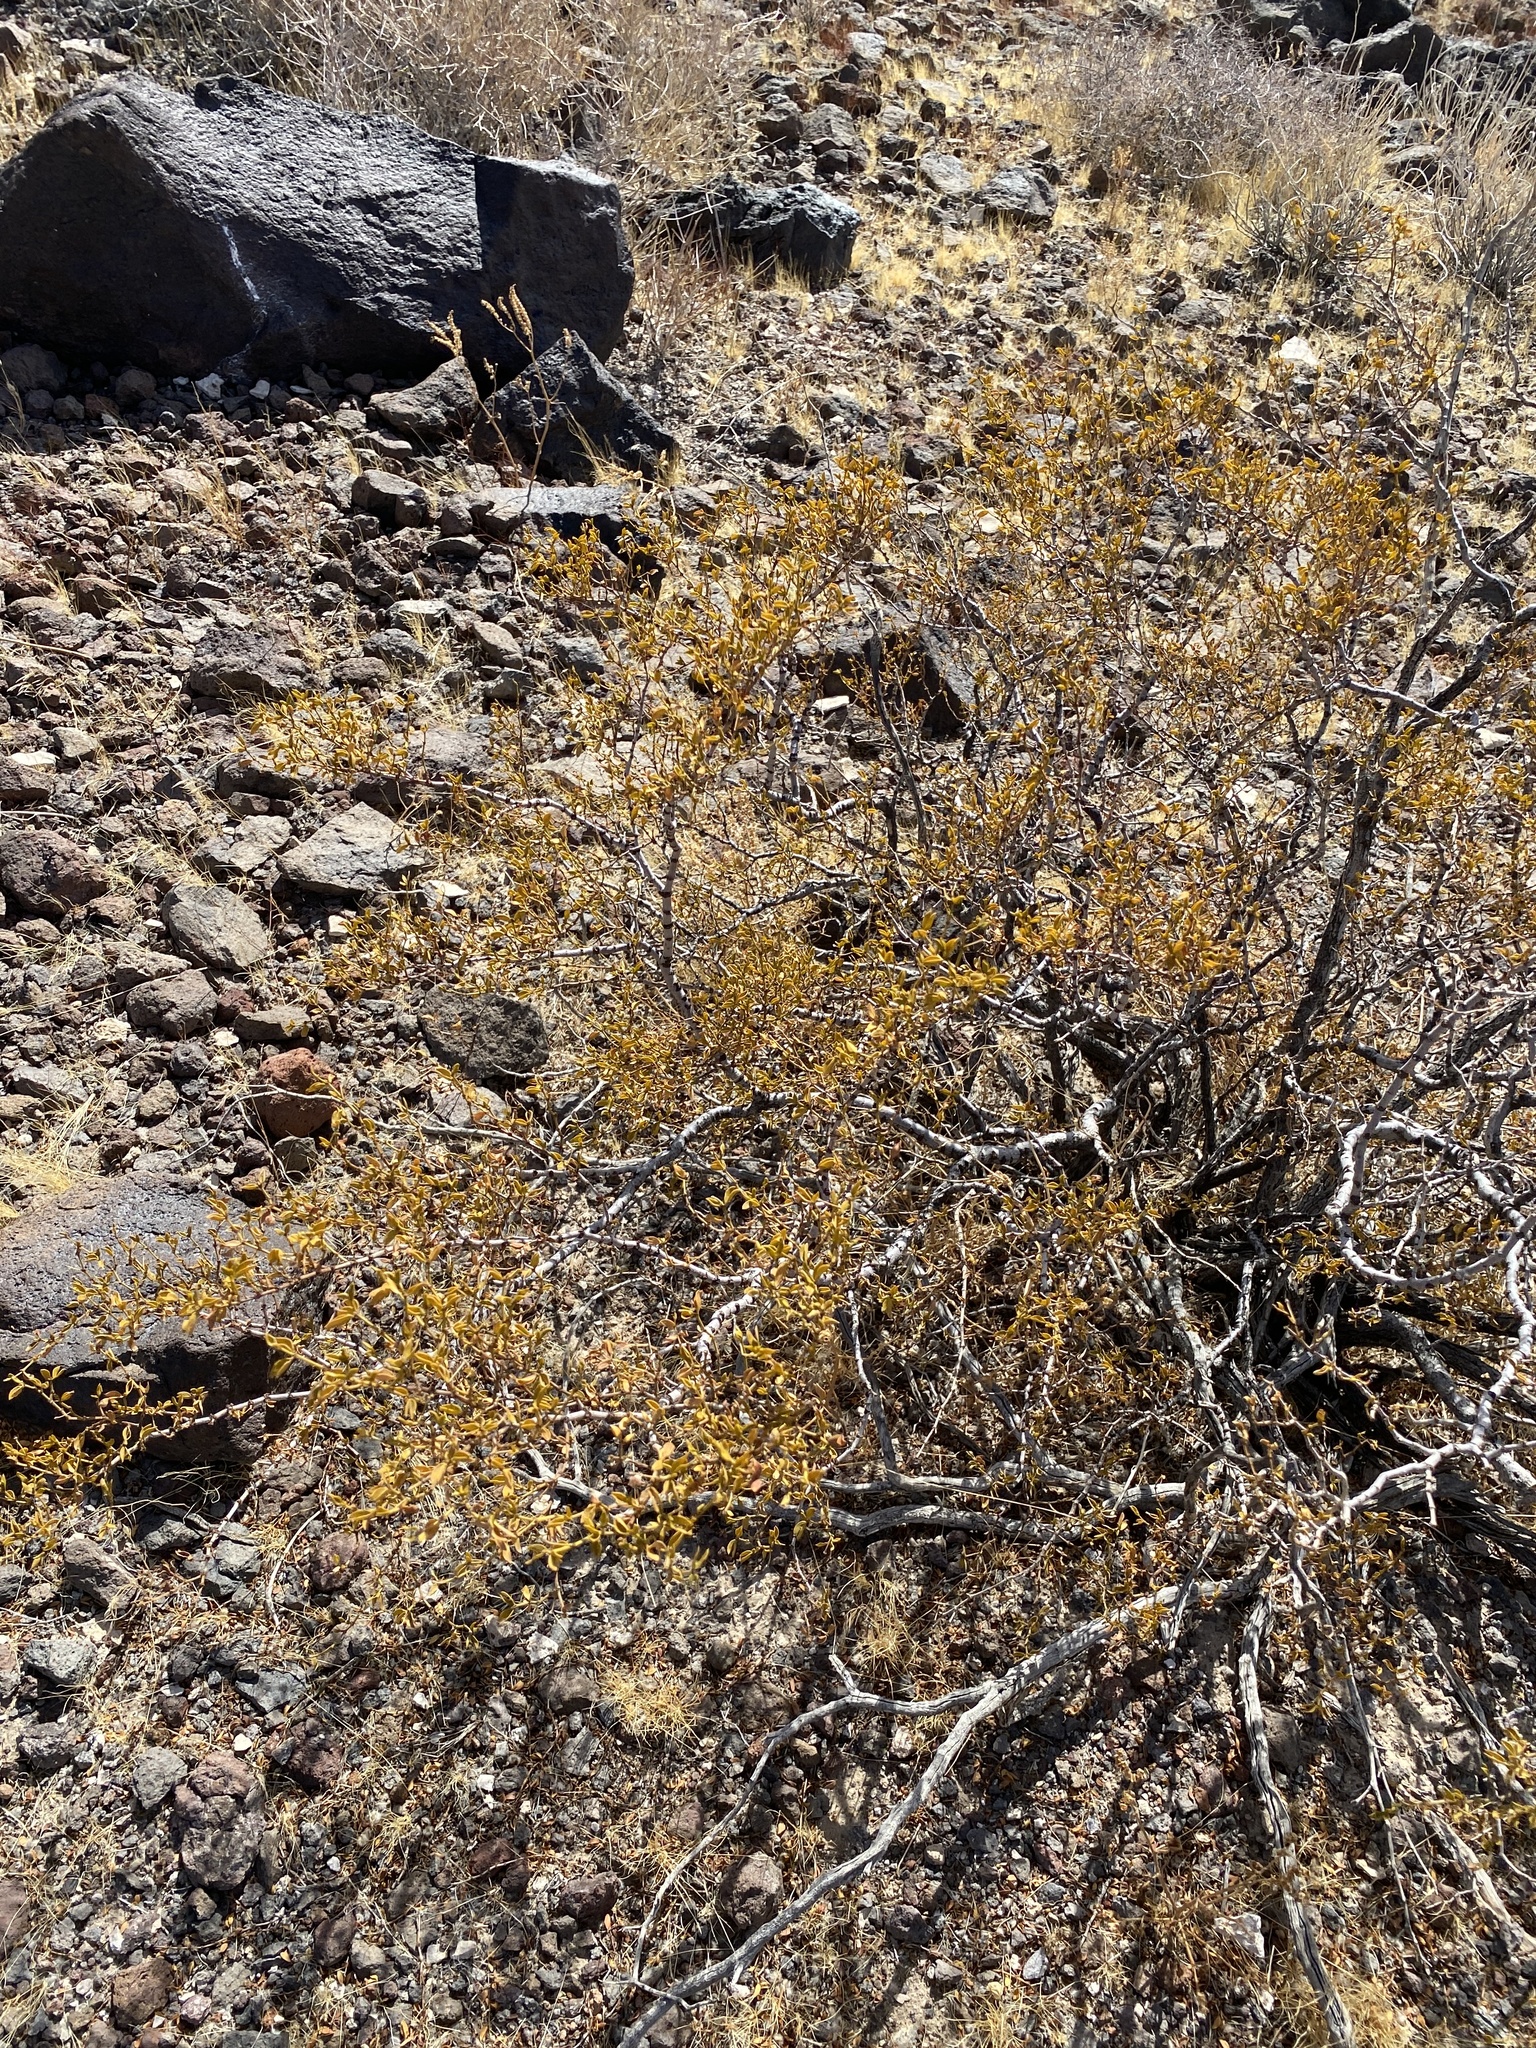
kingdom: Plantae
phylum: Tracheophyta
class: Magnoliopsida
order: Zygophyllales
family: Zygophyllaceae
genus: Larrea
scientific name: Larrea tridentata
